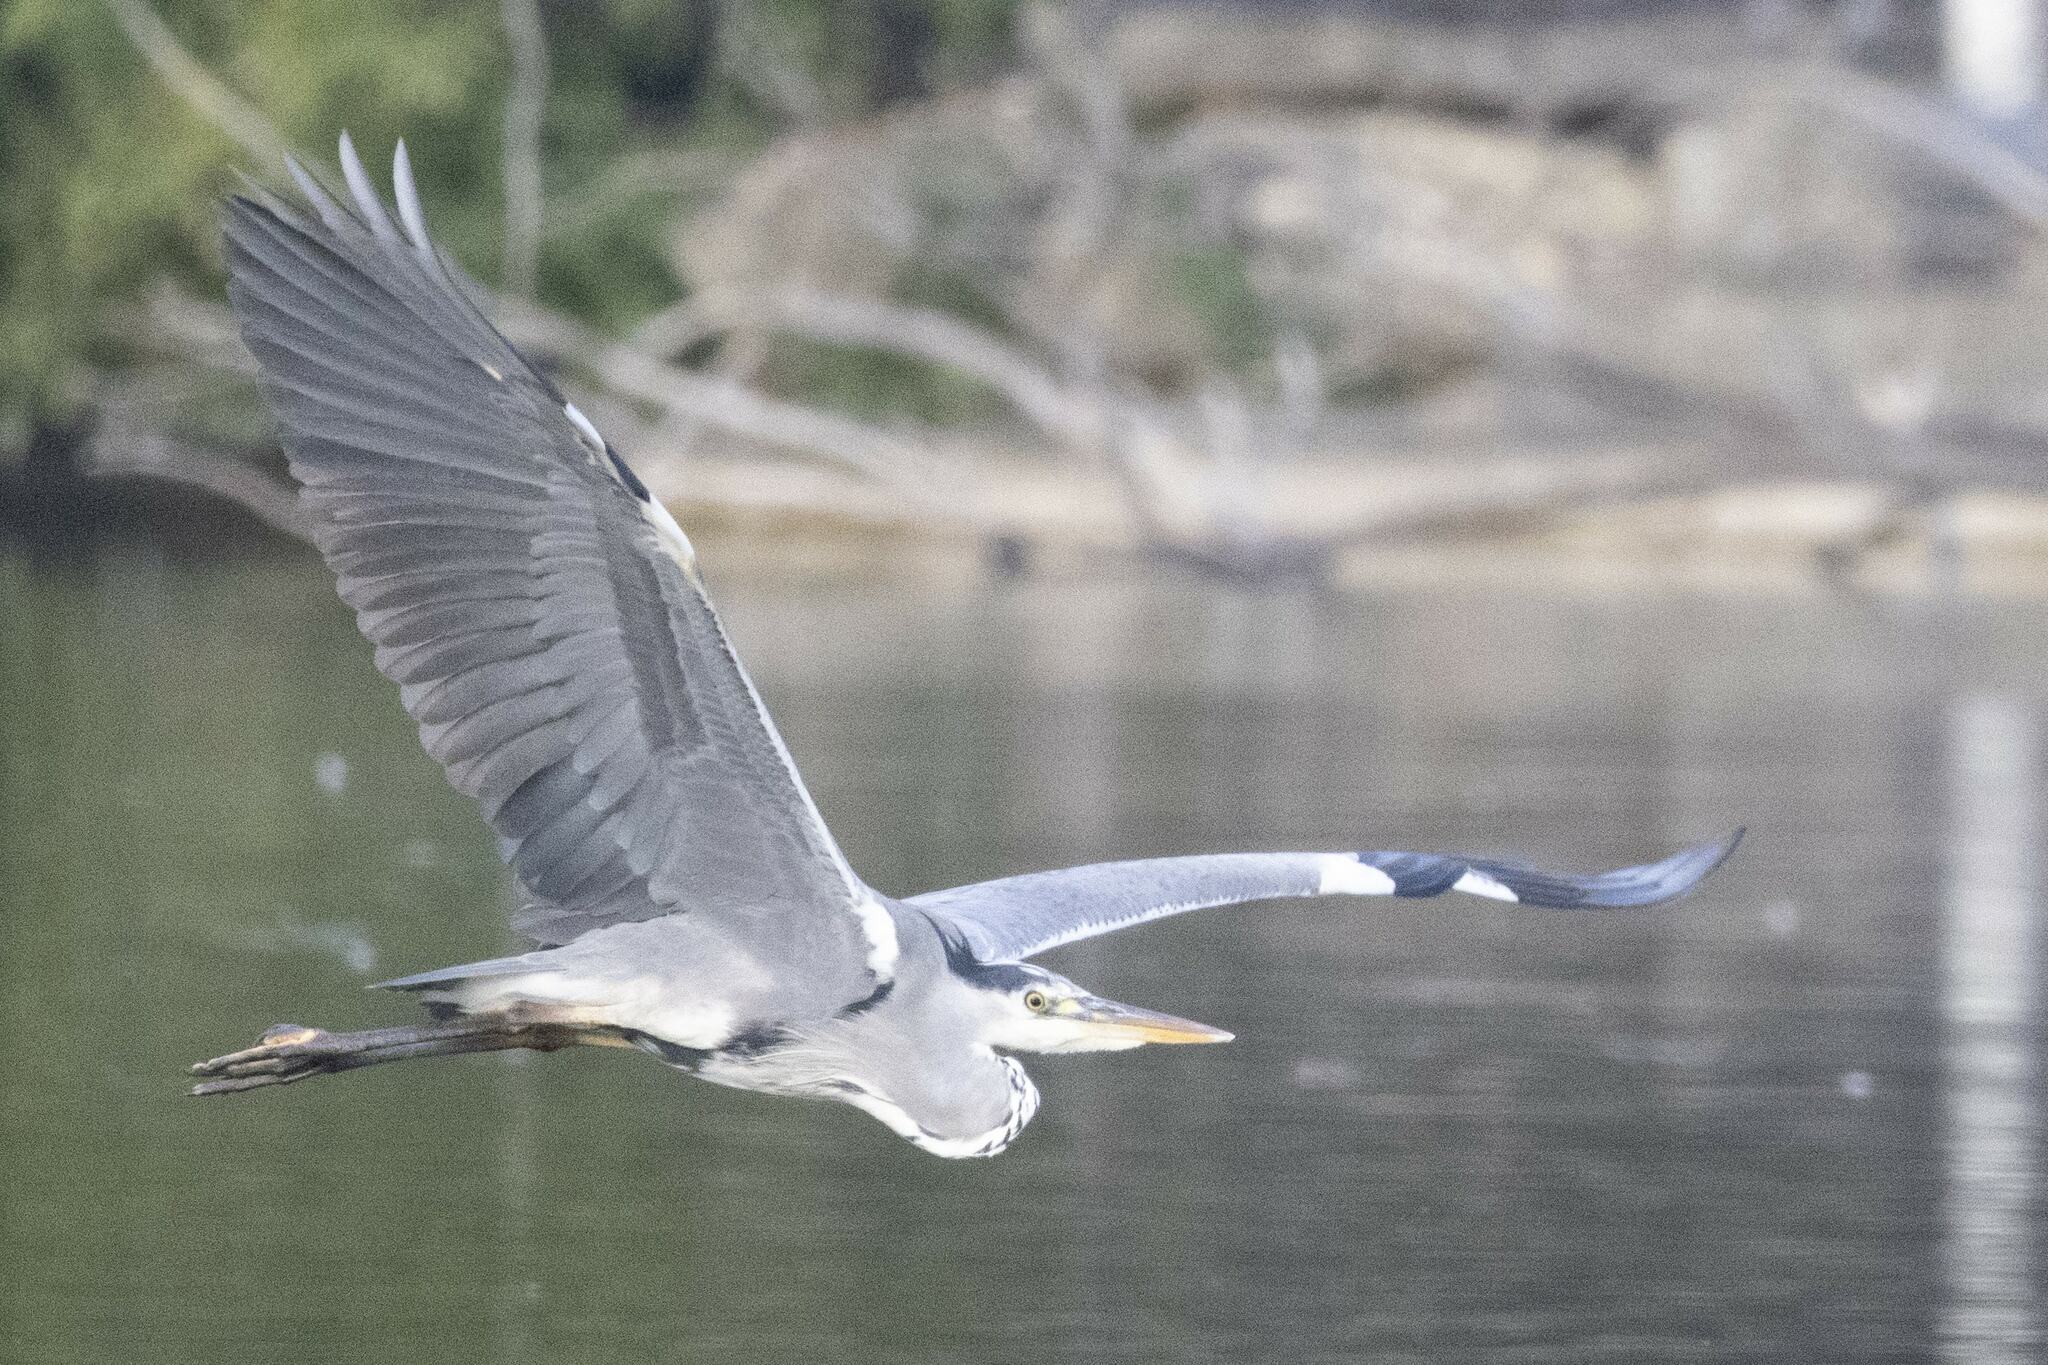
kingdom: Animalia
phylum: Chordata
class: Aves
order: Pelecaniformes
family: Ardeidae
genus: Ardea
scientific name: Ardea cinerea
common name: Grey heron
